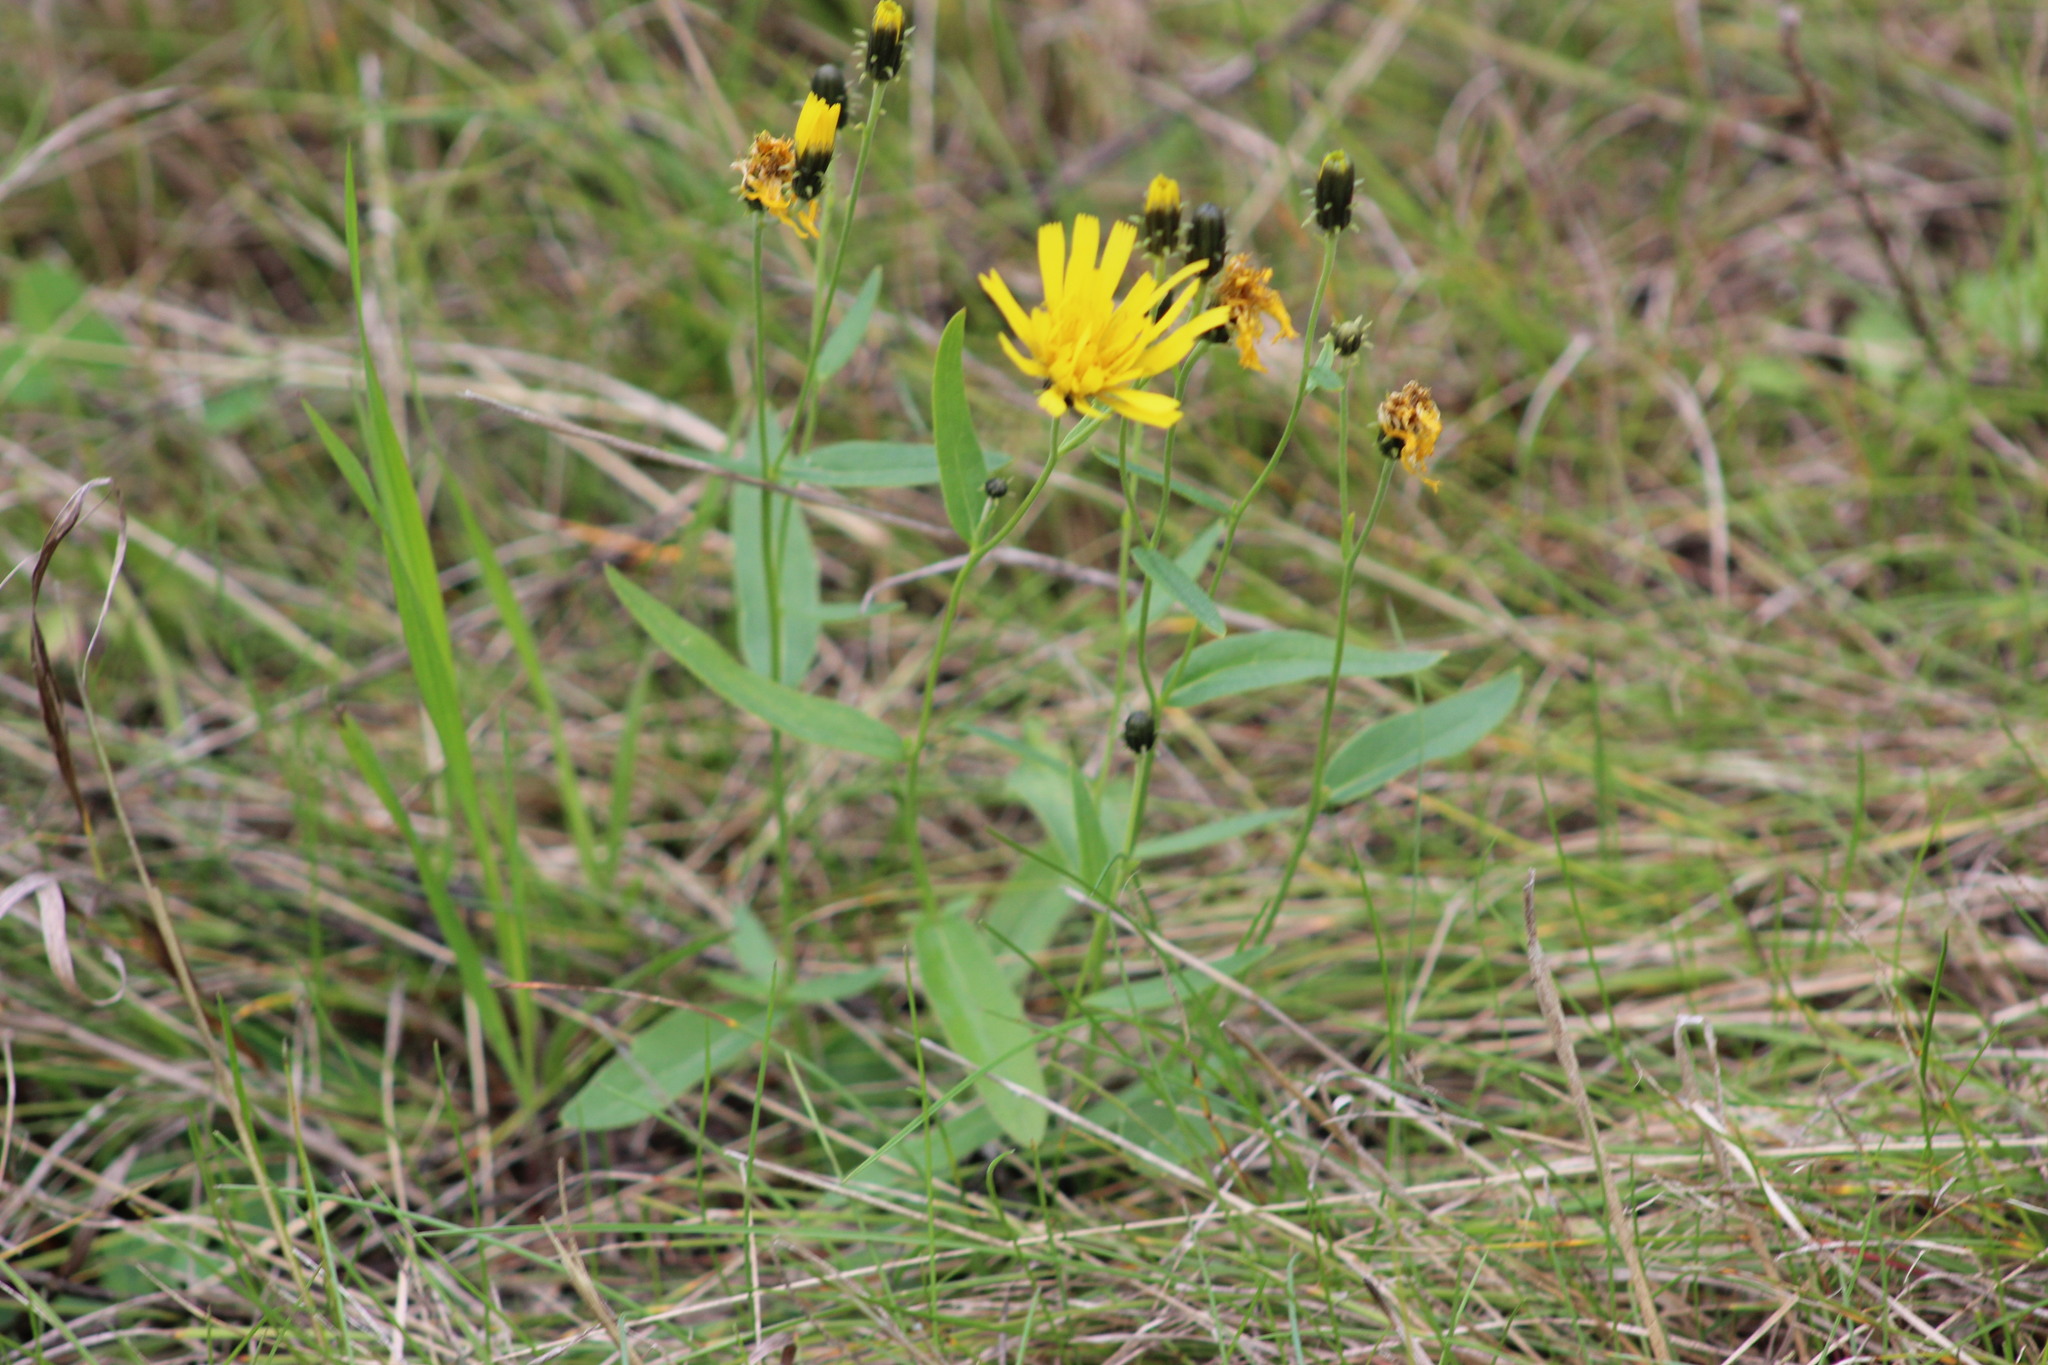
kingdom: Plantae
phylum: Tracheophyta
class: Magnoliopsida
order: Asterales
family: Asteraceae
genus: Hieracium
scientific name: Hieracium umbellatum
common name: Northern hawkweed
